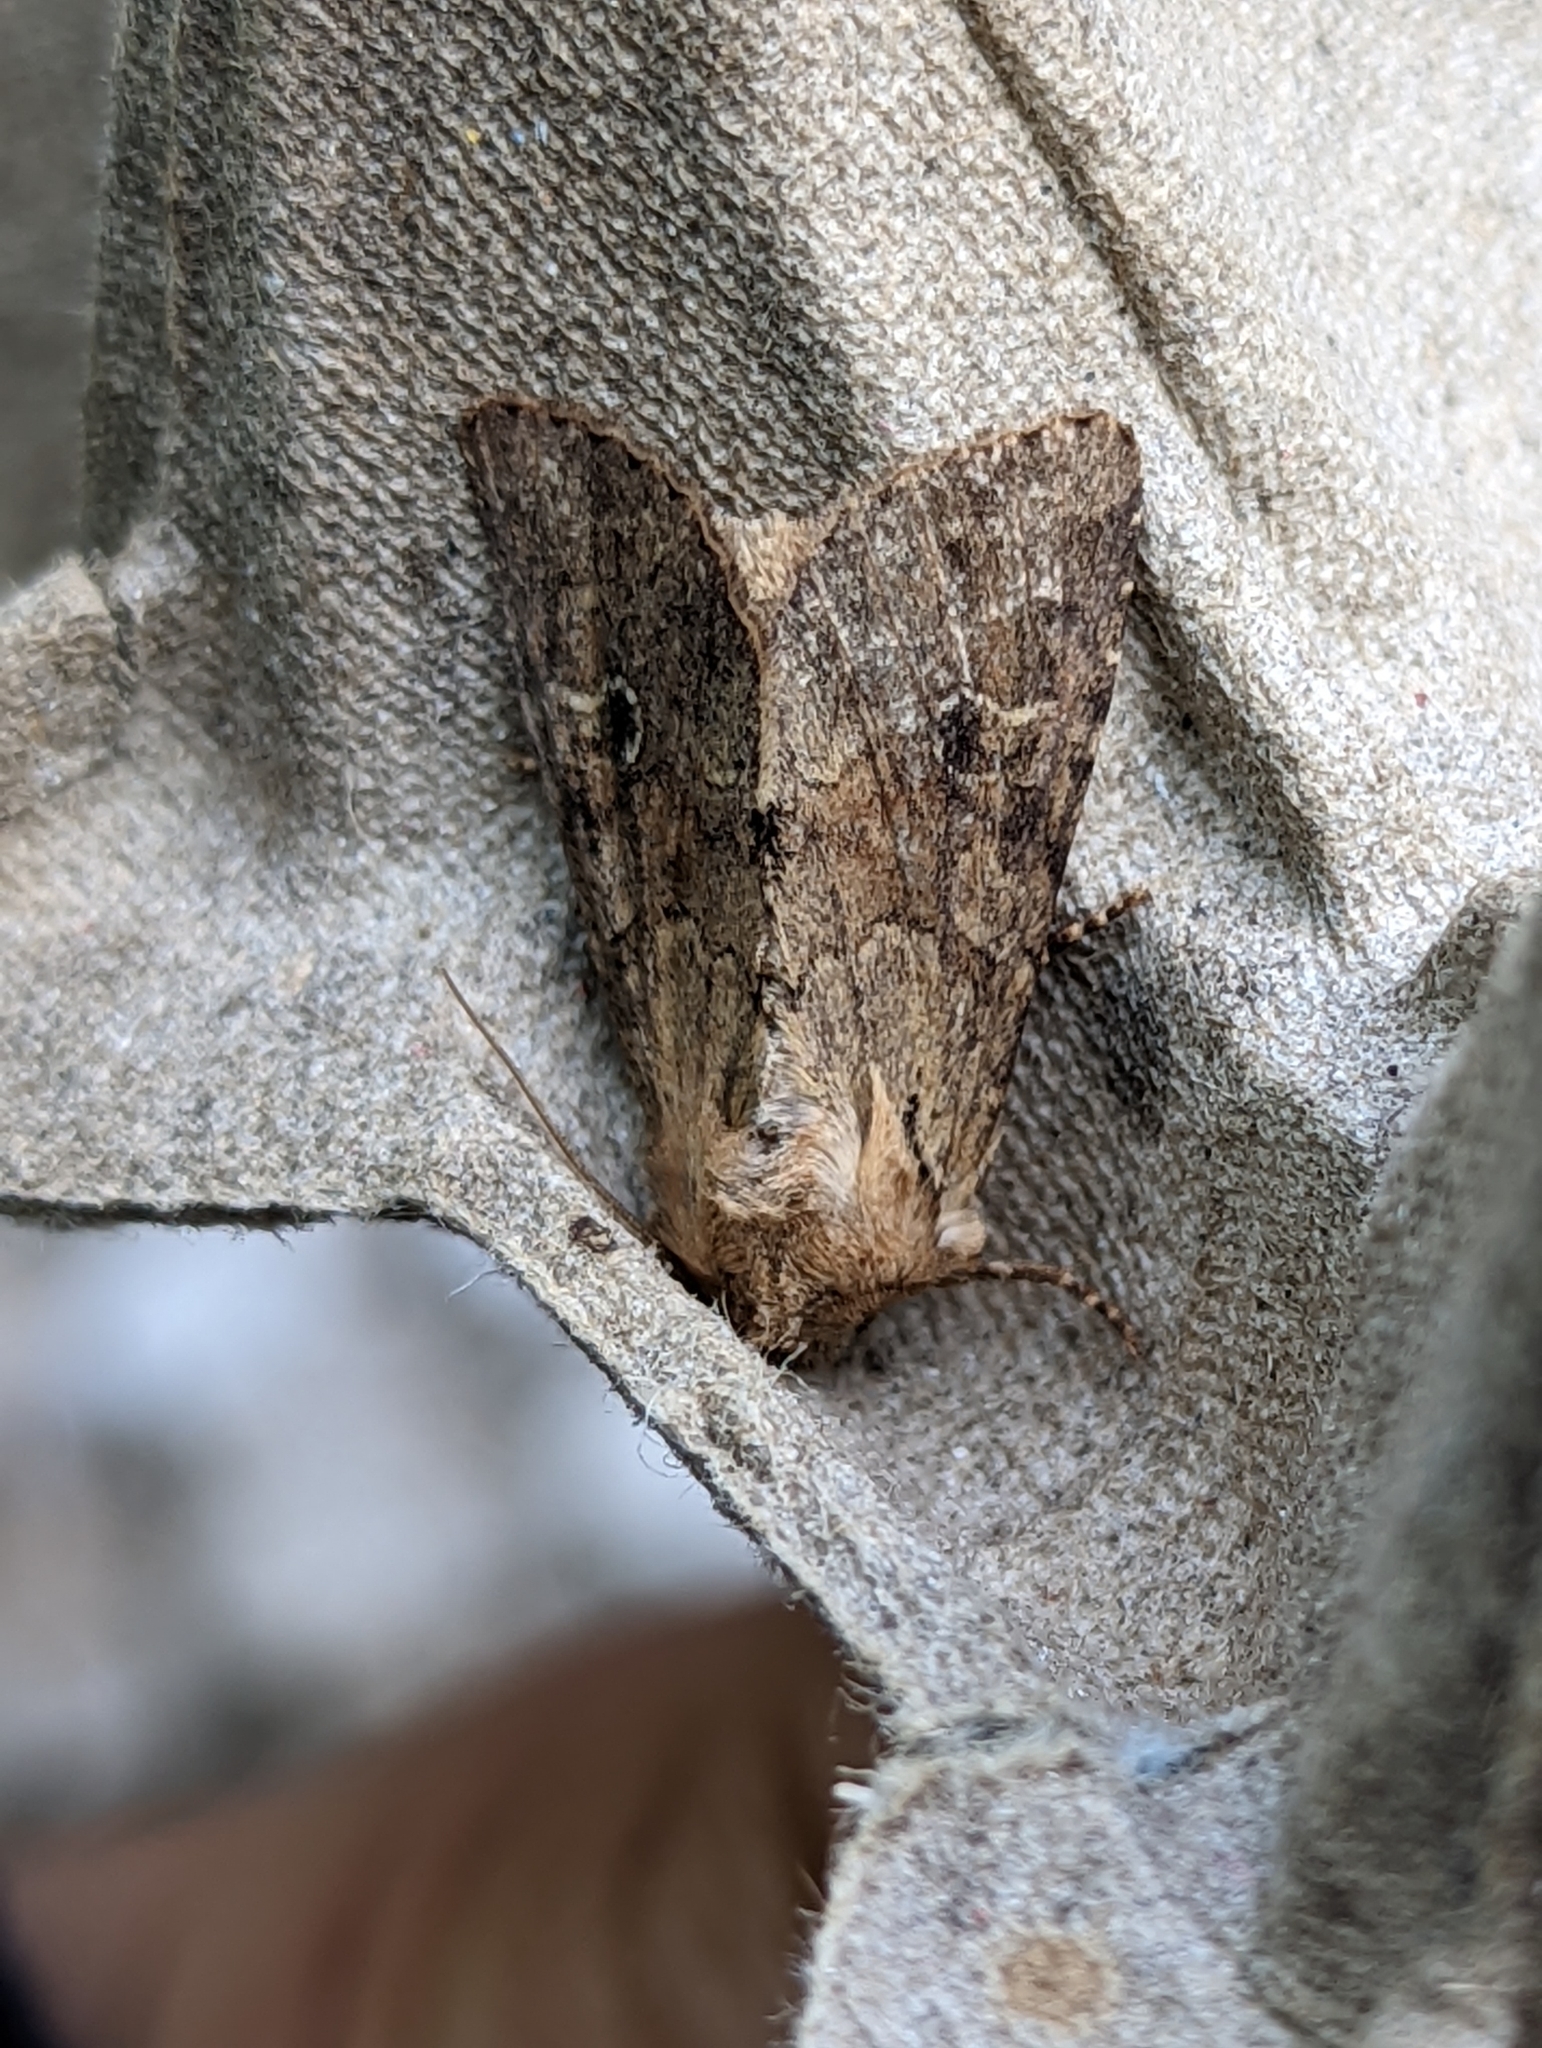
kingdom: Animalia
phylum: Arthropoda
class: Insecta
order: Lepidoptera
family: Noctuidae
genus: Apamea
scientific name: Apamea sordens
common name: Rustic shoulder-knot
